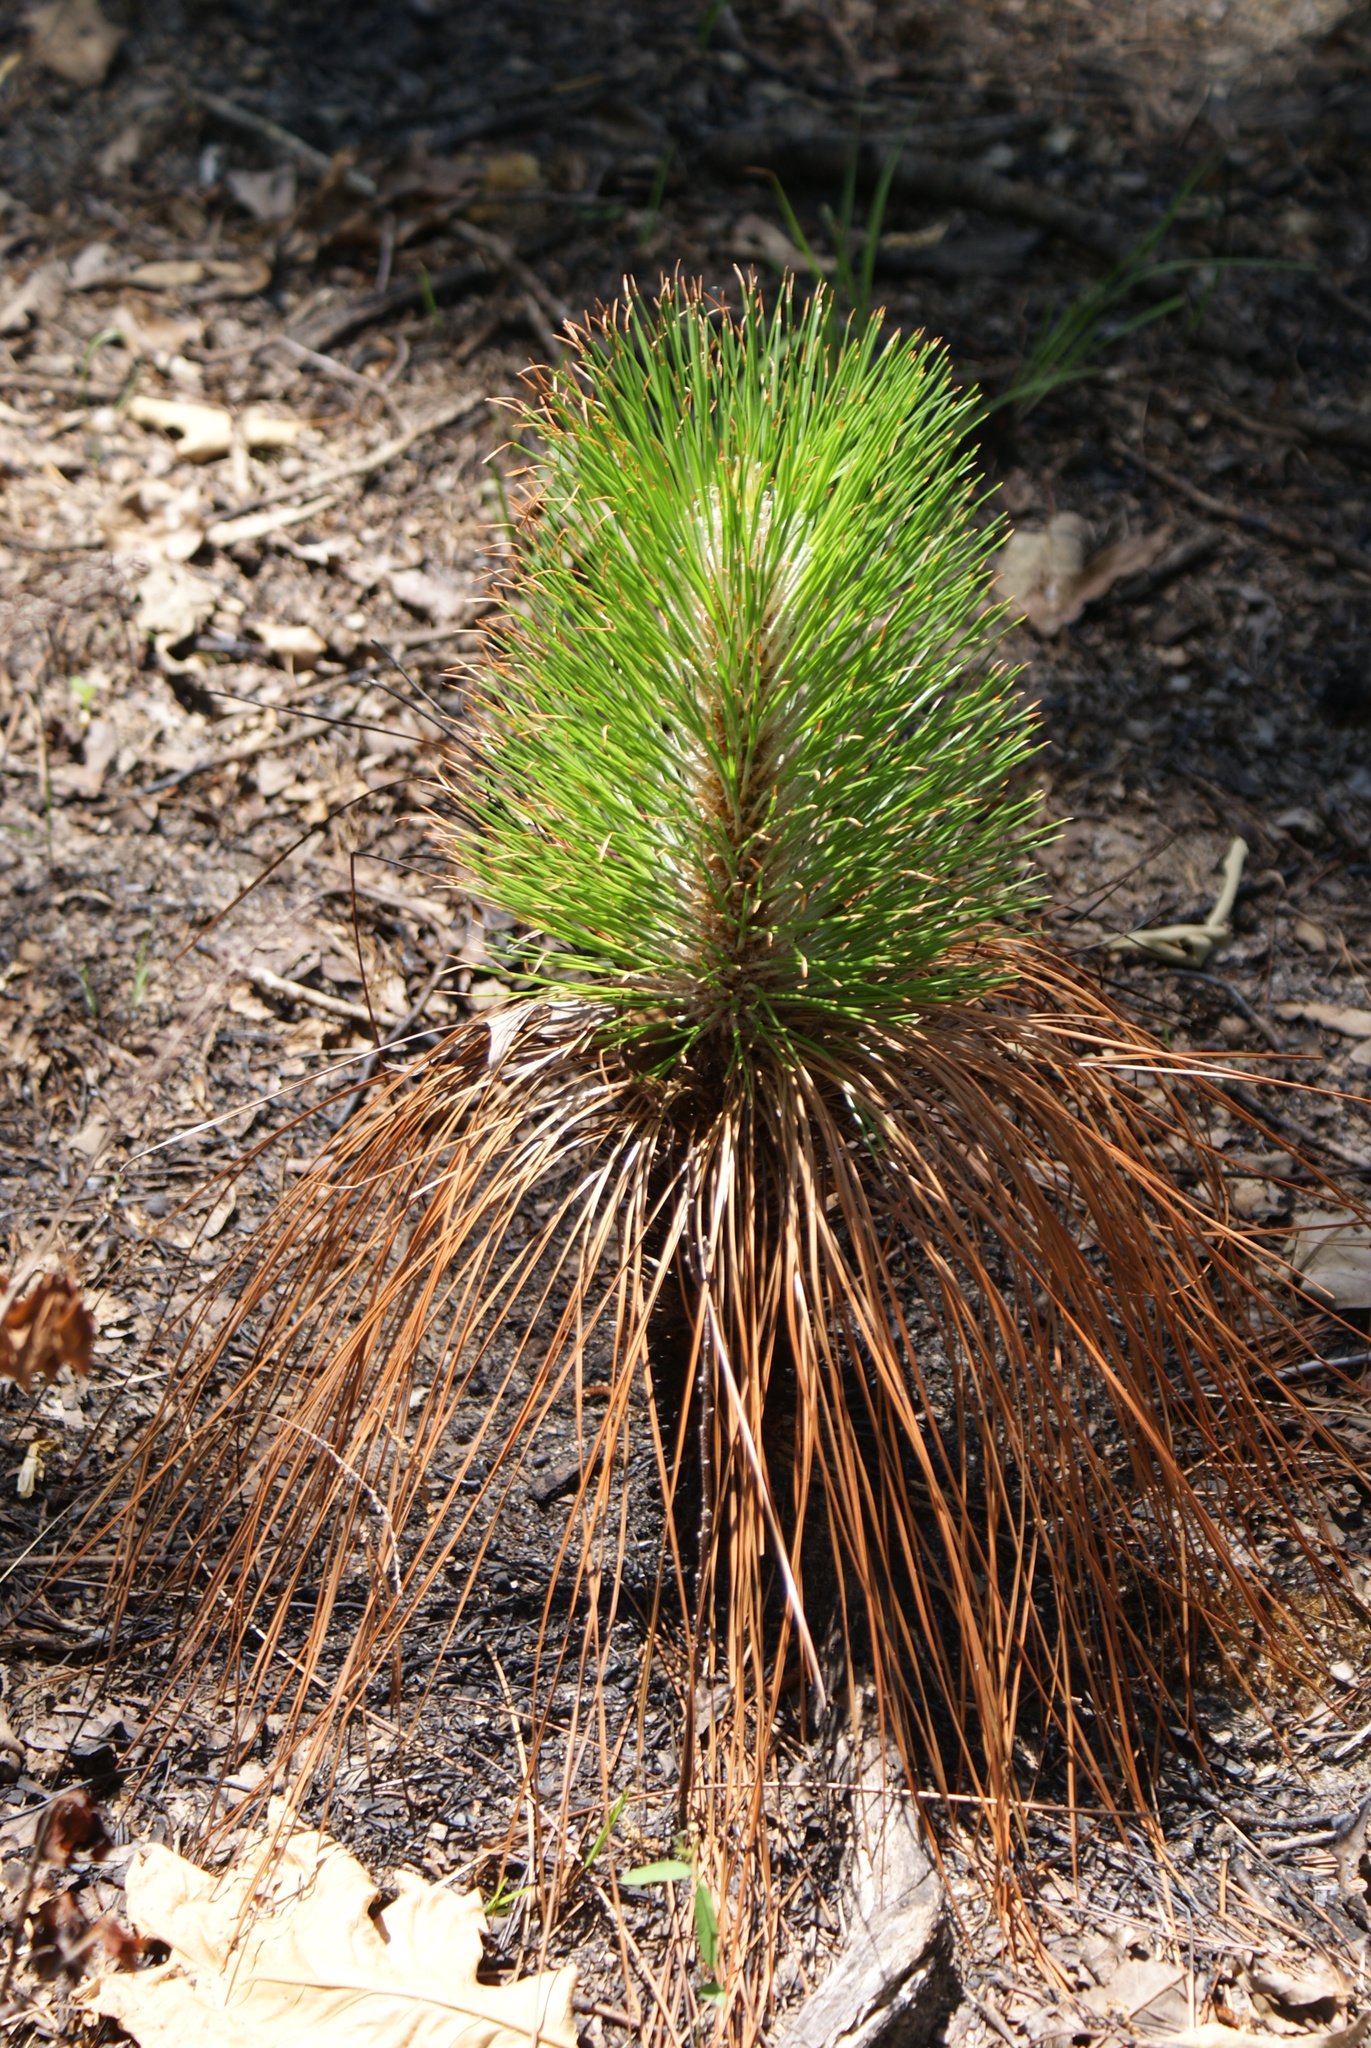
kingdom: Plantae
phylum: Tracheophyta
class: Pinopsida
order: Pinales
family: Pinaceae
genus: Pinus
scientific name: Pinus palustris
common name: Longleaf pine
